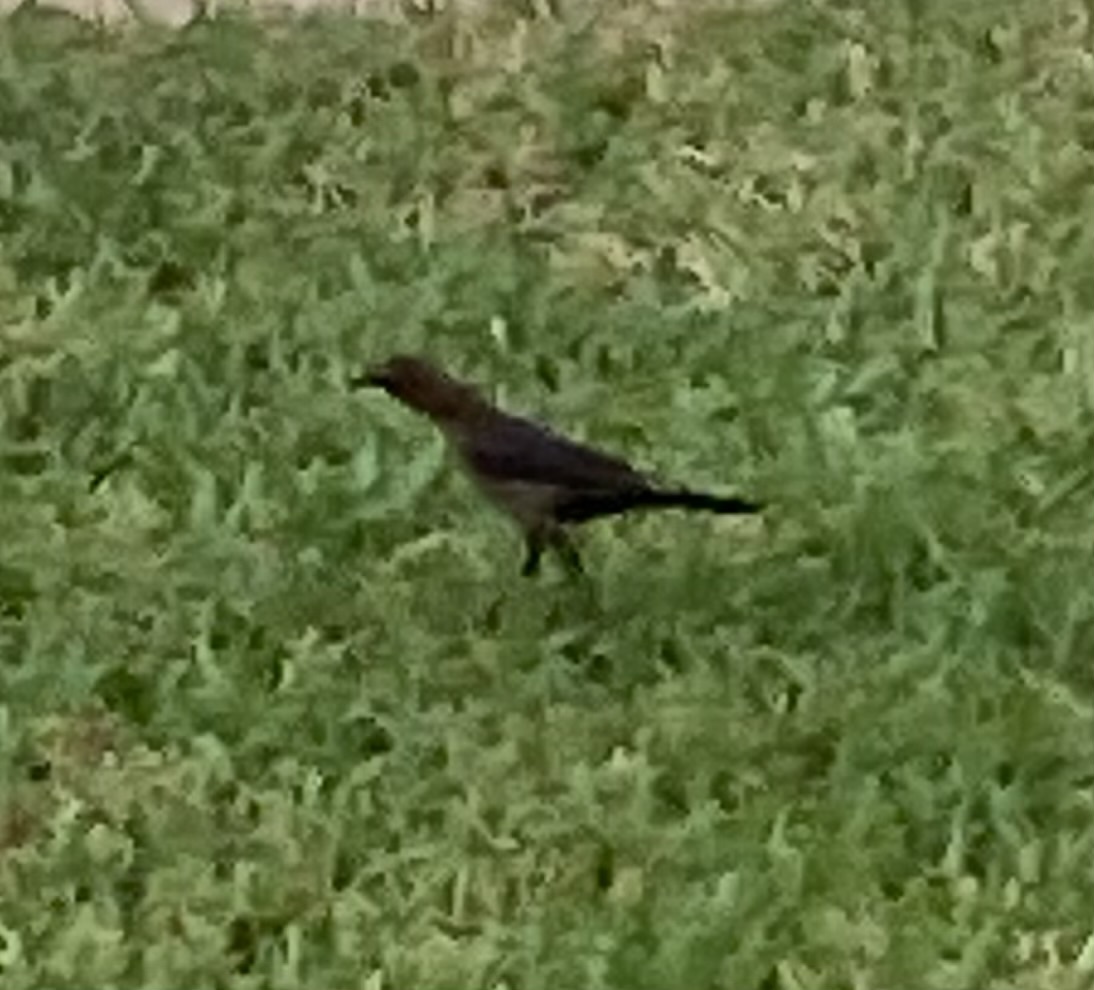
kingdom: Animalia
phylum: Chordata
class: Aves
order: Passeriformes
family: Icteridae
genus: Quiscalus
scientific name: Quiscalus major
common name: Boat-tailed grackle
